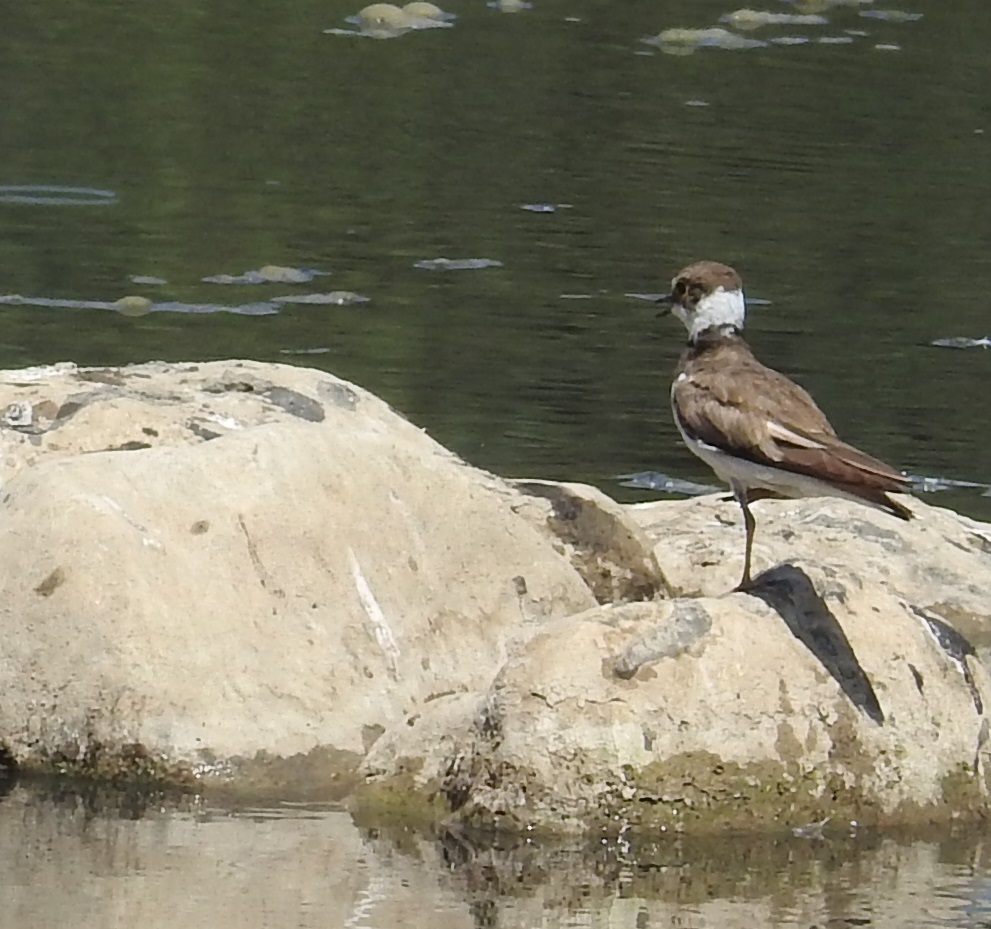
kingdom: Animalia
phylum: Chordata
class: Aves
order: Charadriiformes
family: Charadriidae
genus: Charadrius
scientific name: Charadrius dubius
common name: Little ringed plover
